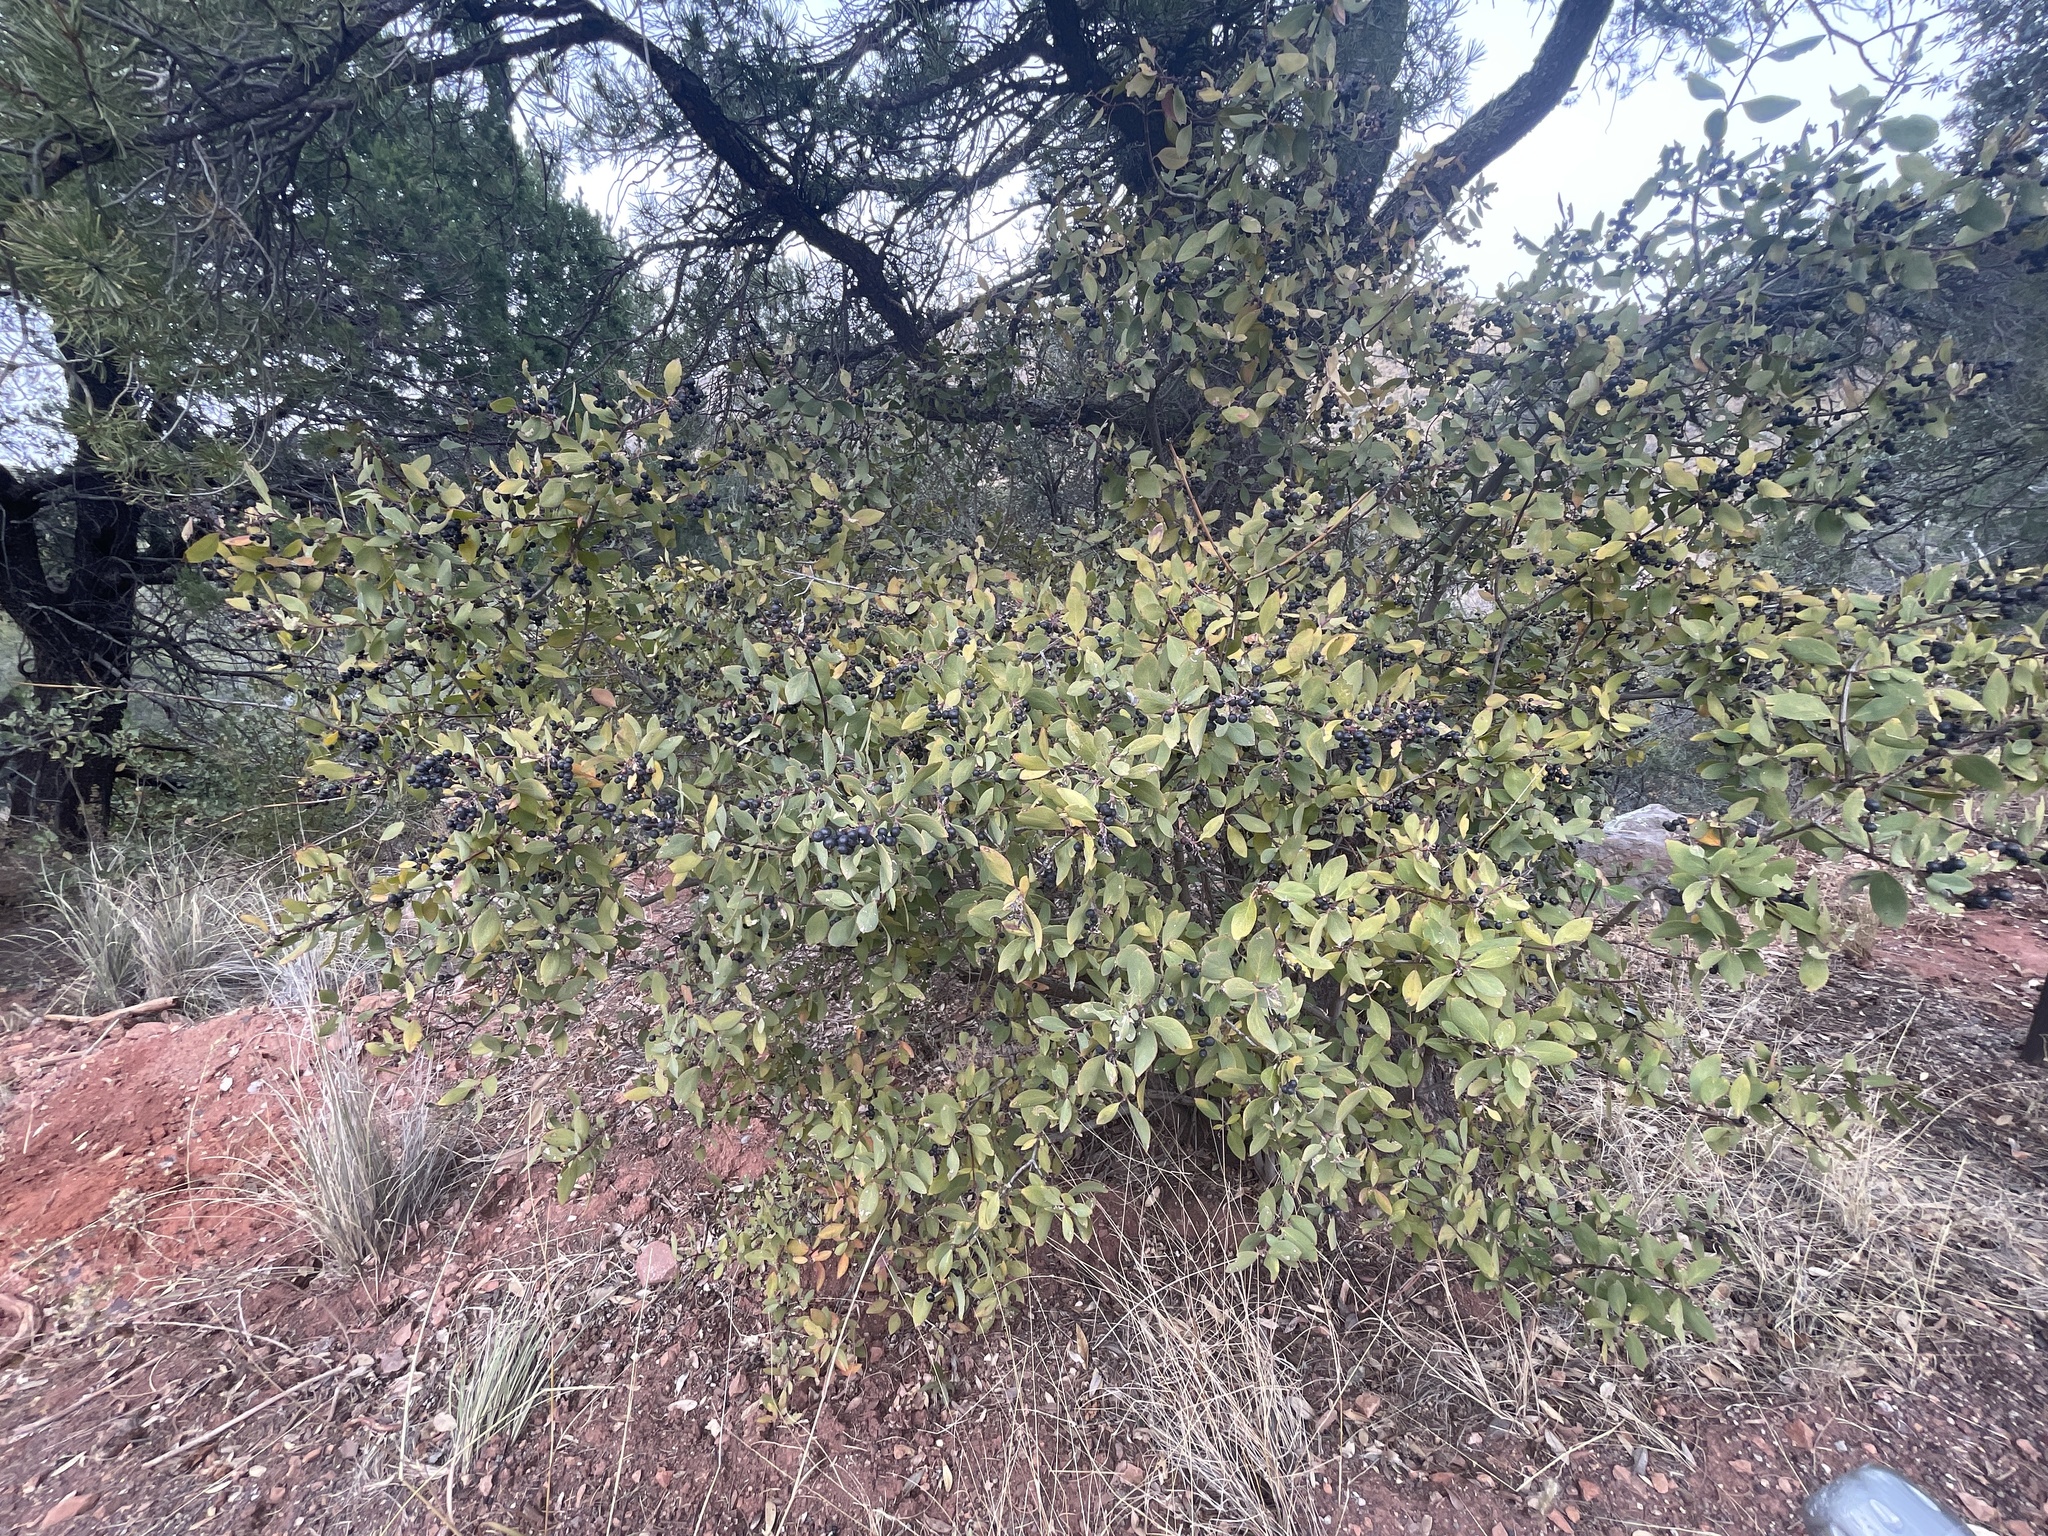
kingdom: Plantae
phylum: Tracheophyta
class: Magnoliopsida
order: Garryales
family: Garryaceae
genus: Garrya
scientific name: Garrya wrightii
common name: Wright's silktassel
